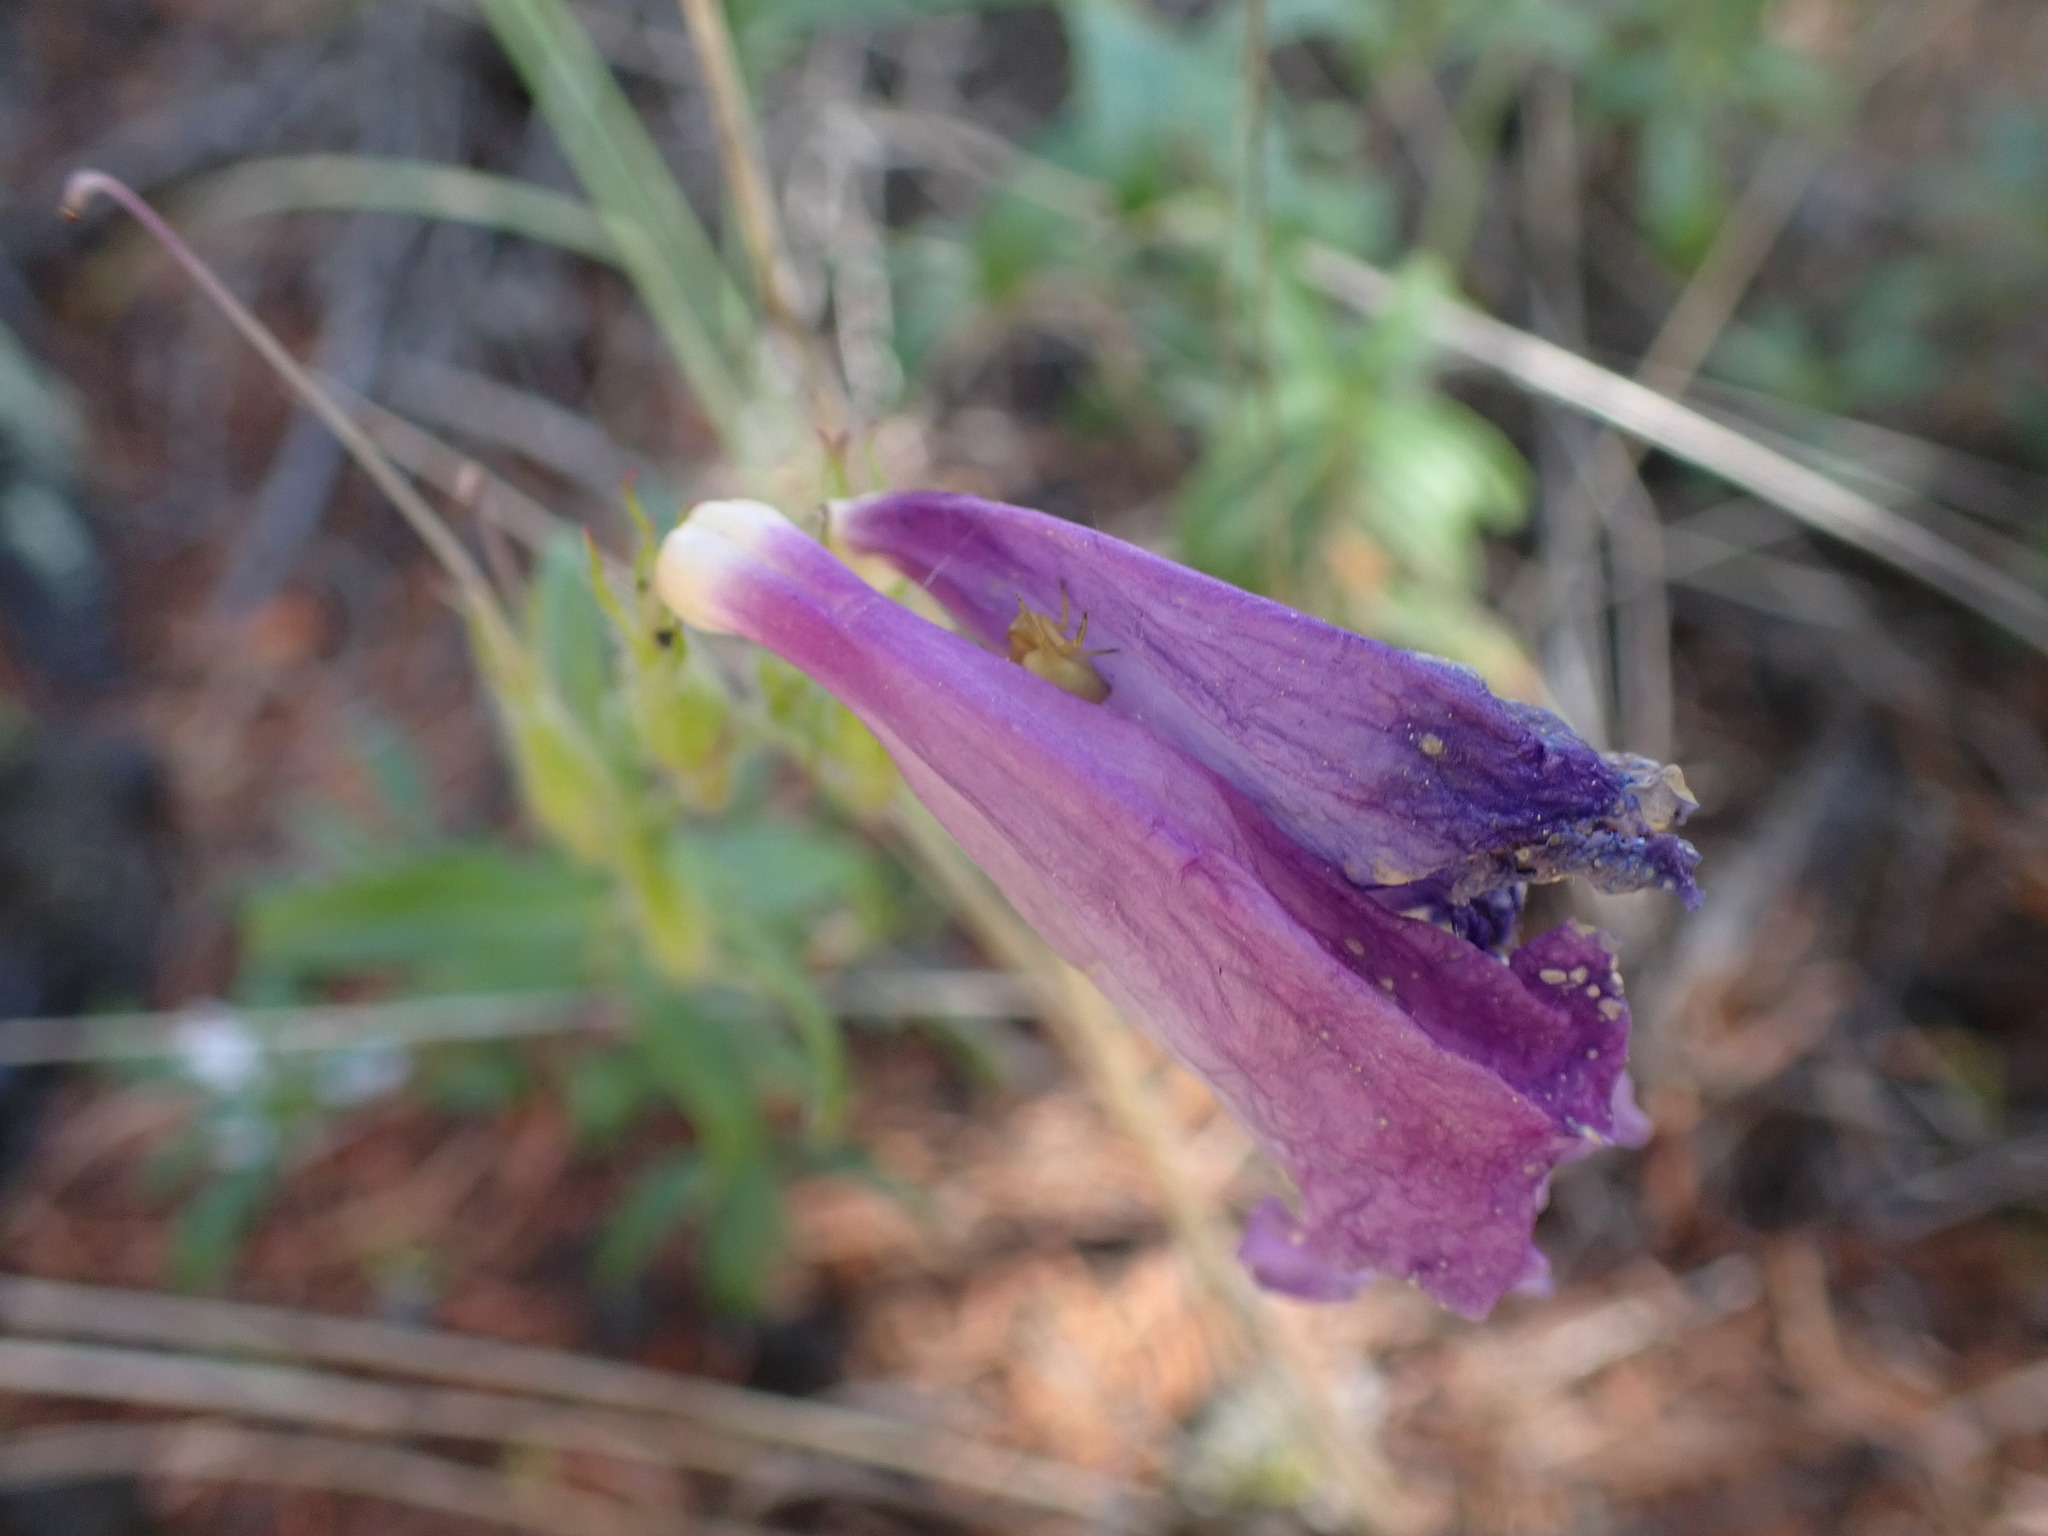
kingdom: Plantae
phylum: Tracheophyta
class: Magnoliopsida
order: Lamiales
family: Plantaginaceae
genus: Penstemon
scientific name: Penstemon fruticosus
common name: Bush penstemon
